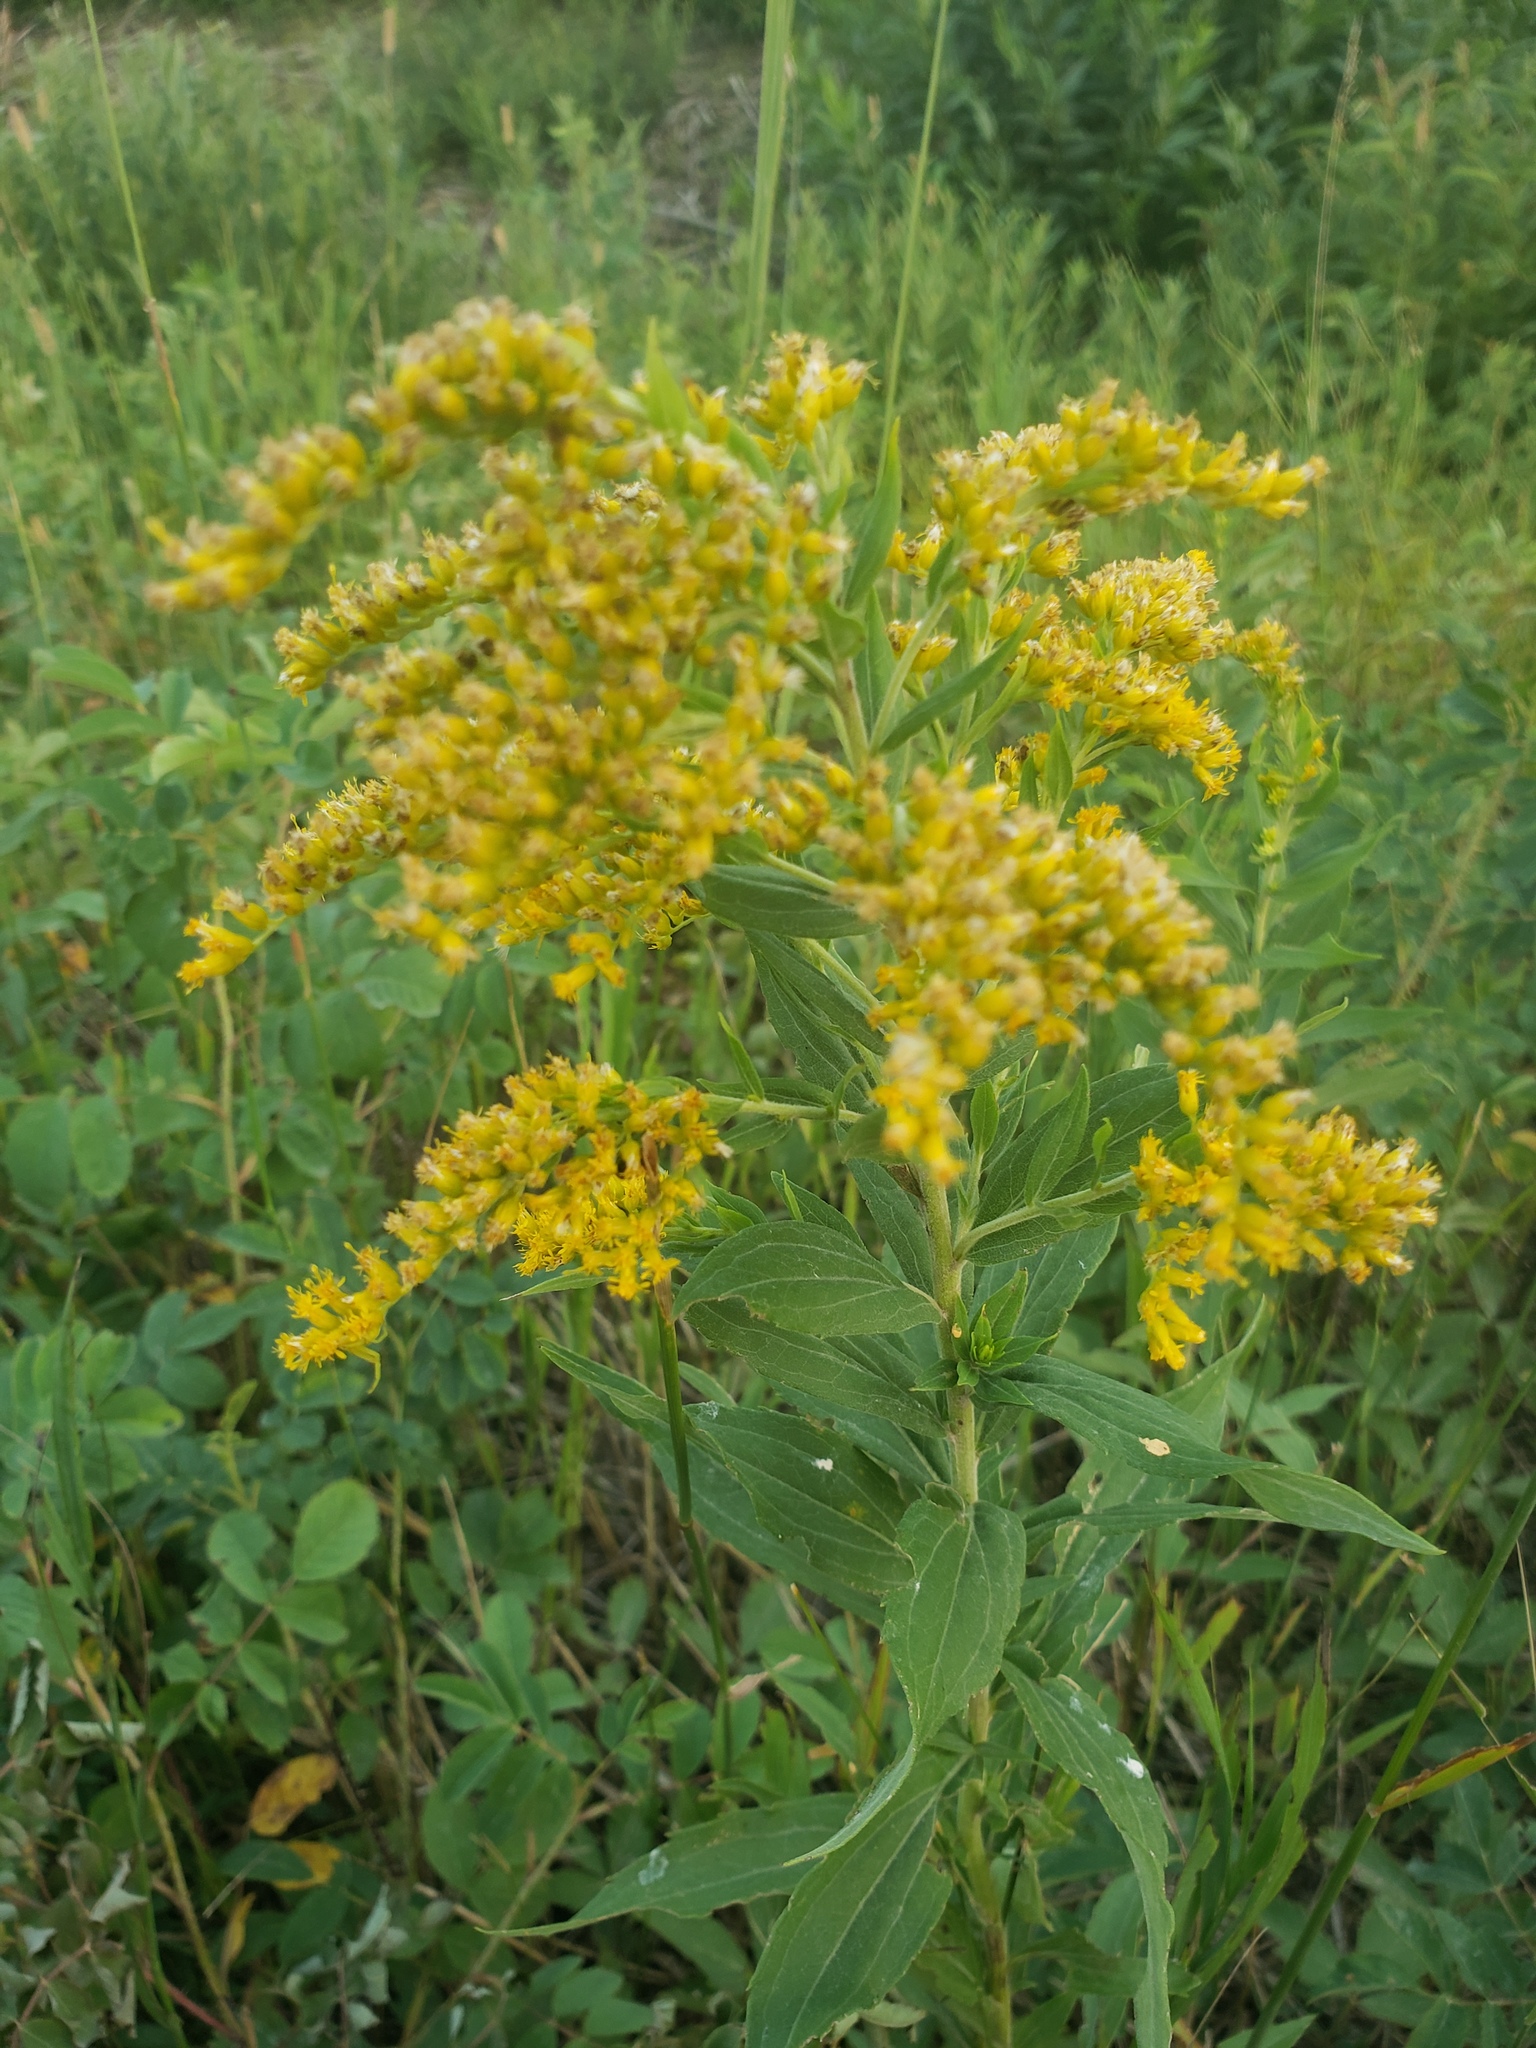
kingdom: Plantae
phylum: Tracheophyta
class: Magnoliopsida
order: Asterales
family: Asteraceae
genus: Solidago
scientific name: Solidago canadensis
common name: Canada goldenrod
